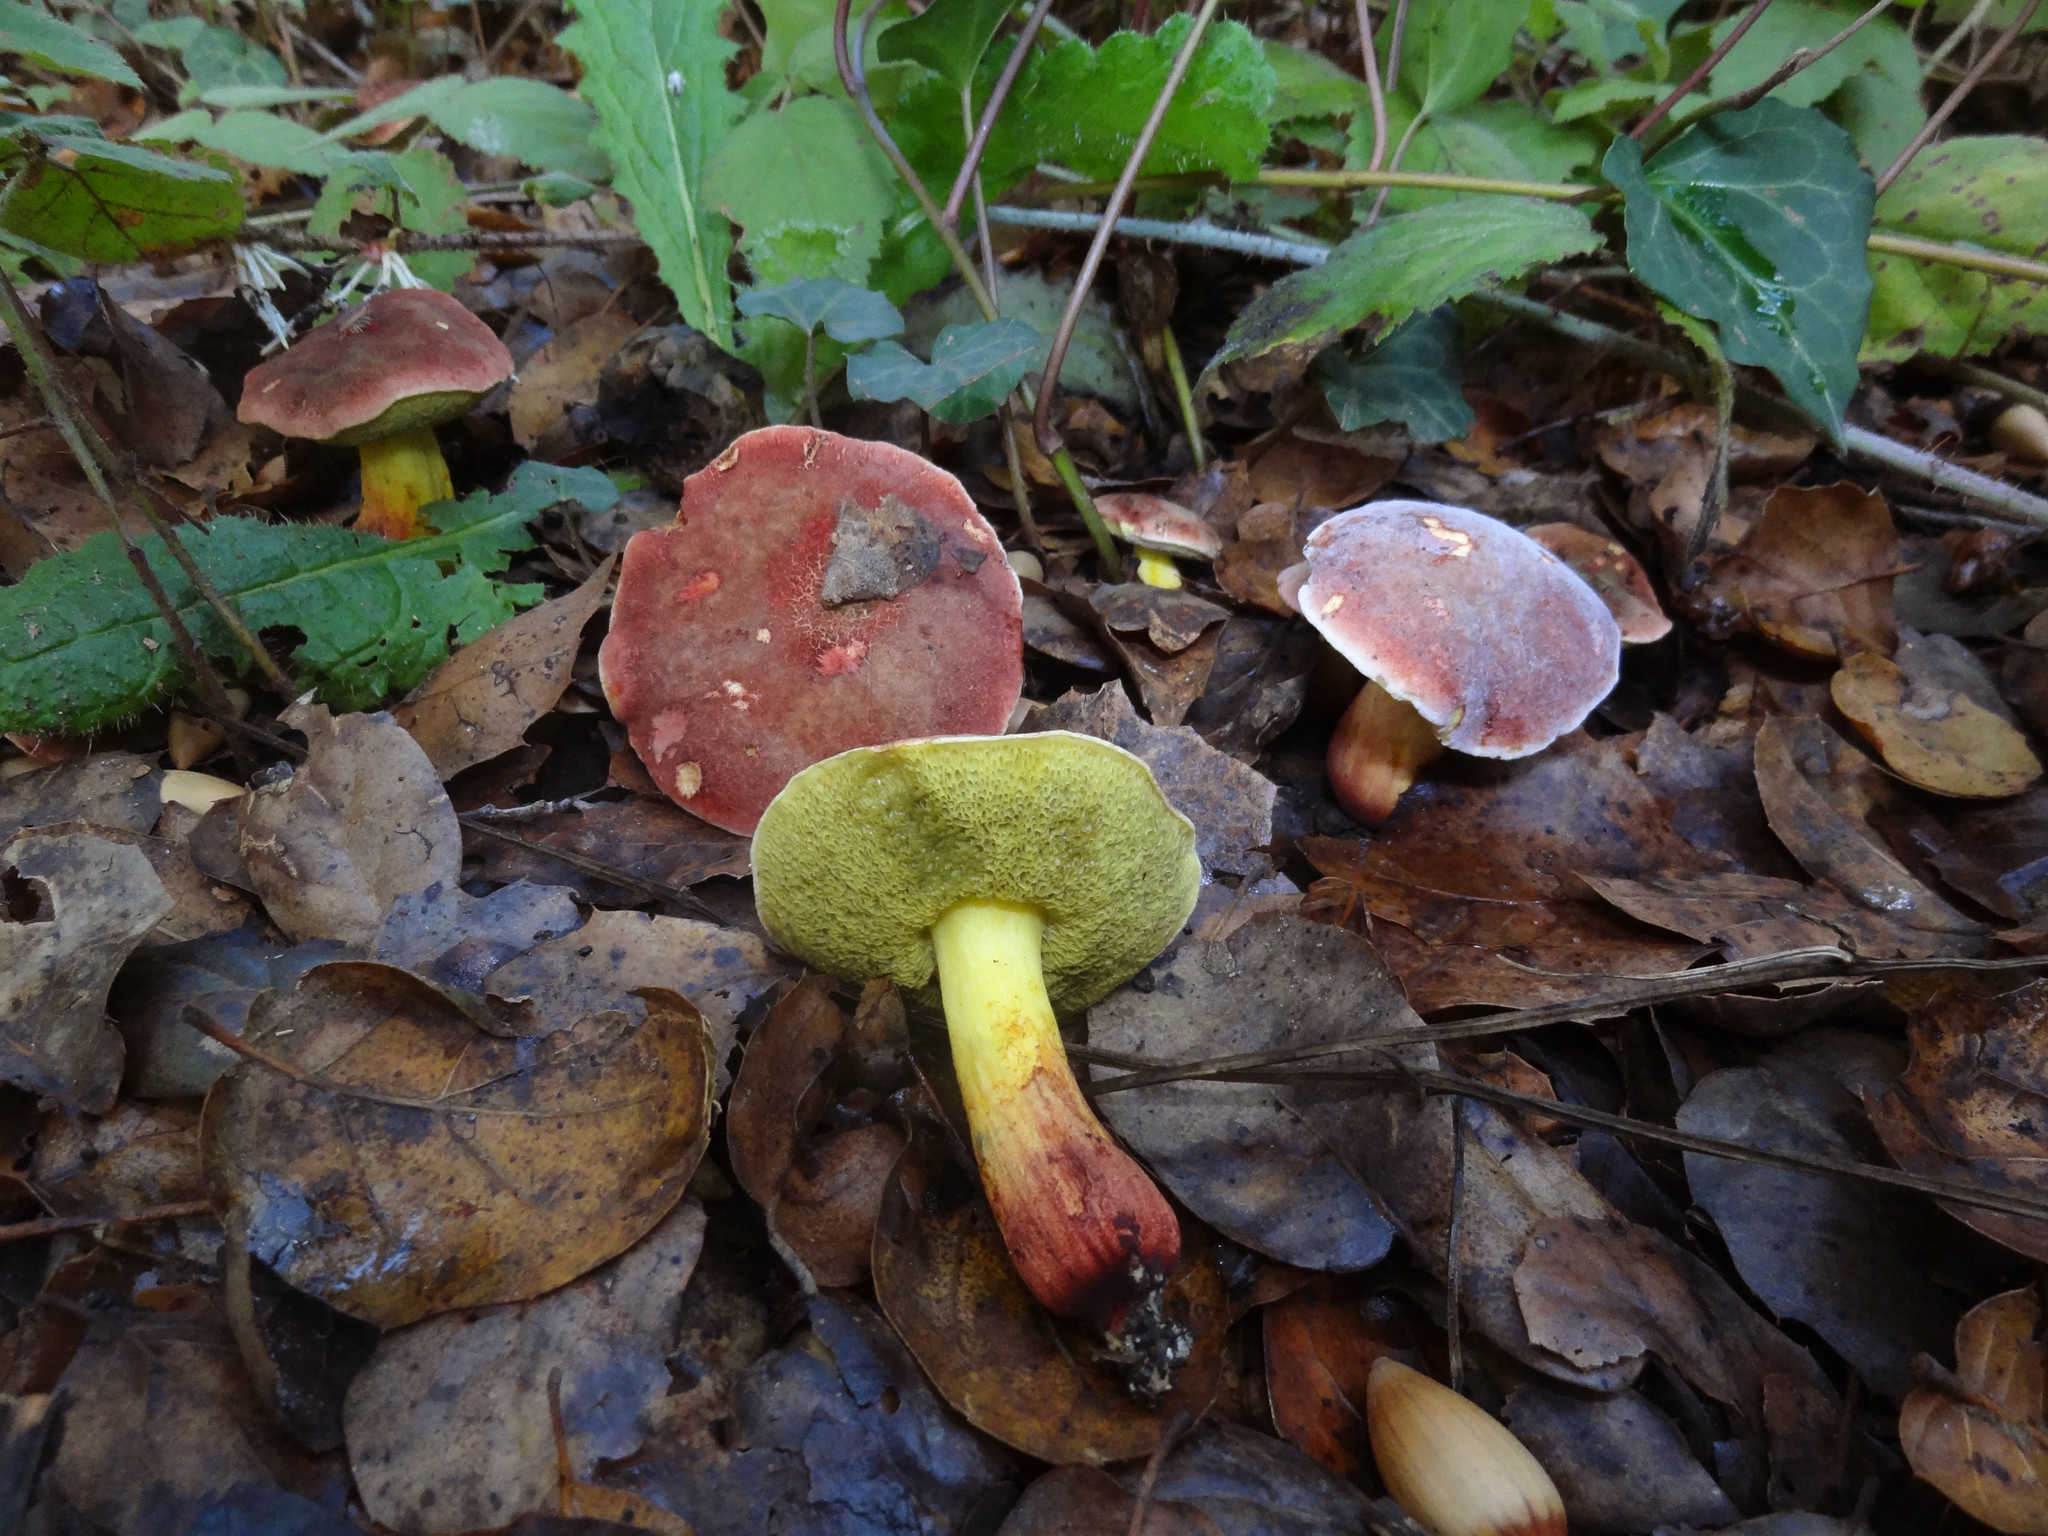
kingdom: Fungi
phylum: Basidiomycota
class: Agaricomycetes
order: Boletales
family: Boletaceae
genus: Xerocomellus
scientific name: Xerocomellus dryophilus
